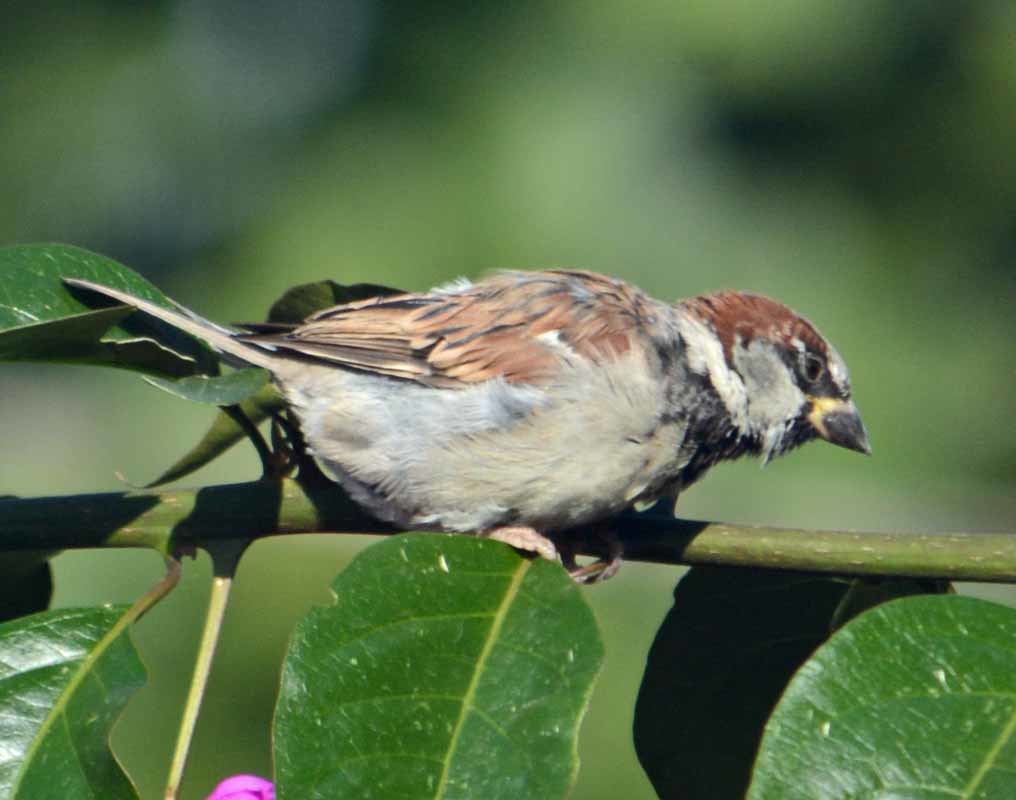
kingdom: Animalia
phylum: Chordata
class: Aves
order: Passeriformes
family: Passeridae
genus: Passer
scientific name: Passer domesticus
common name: House sparrow
